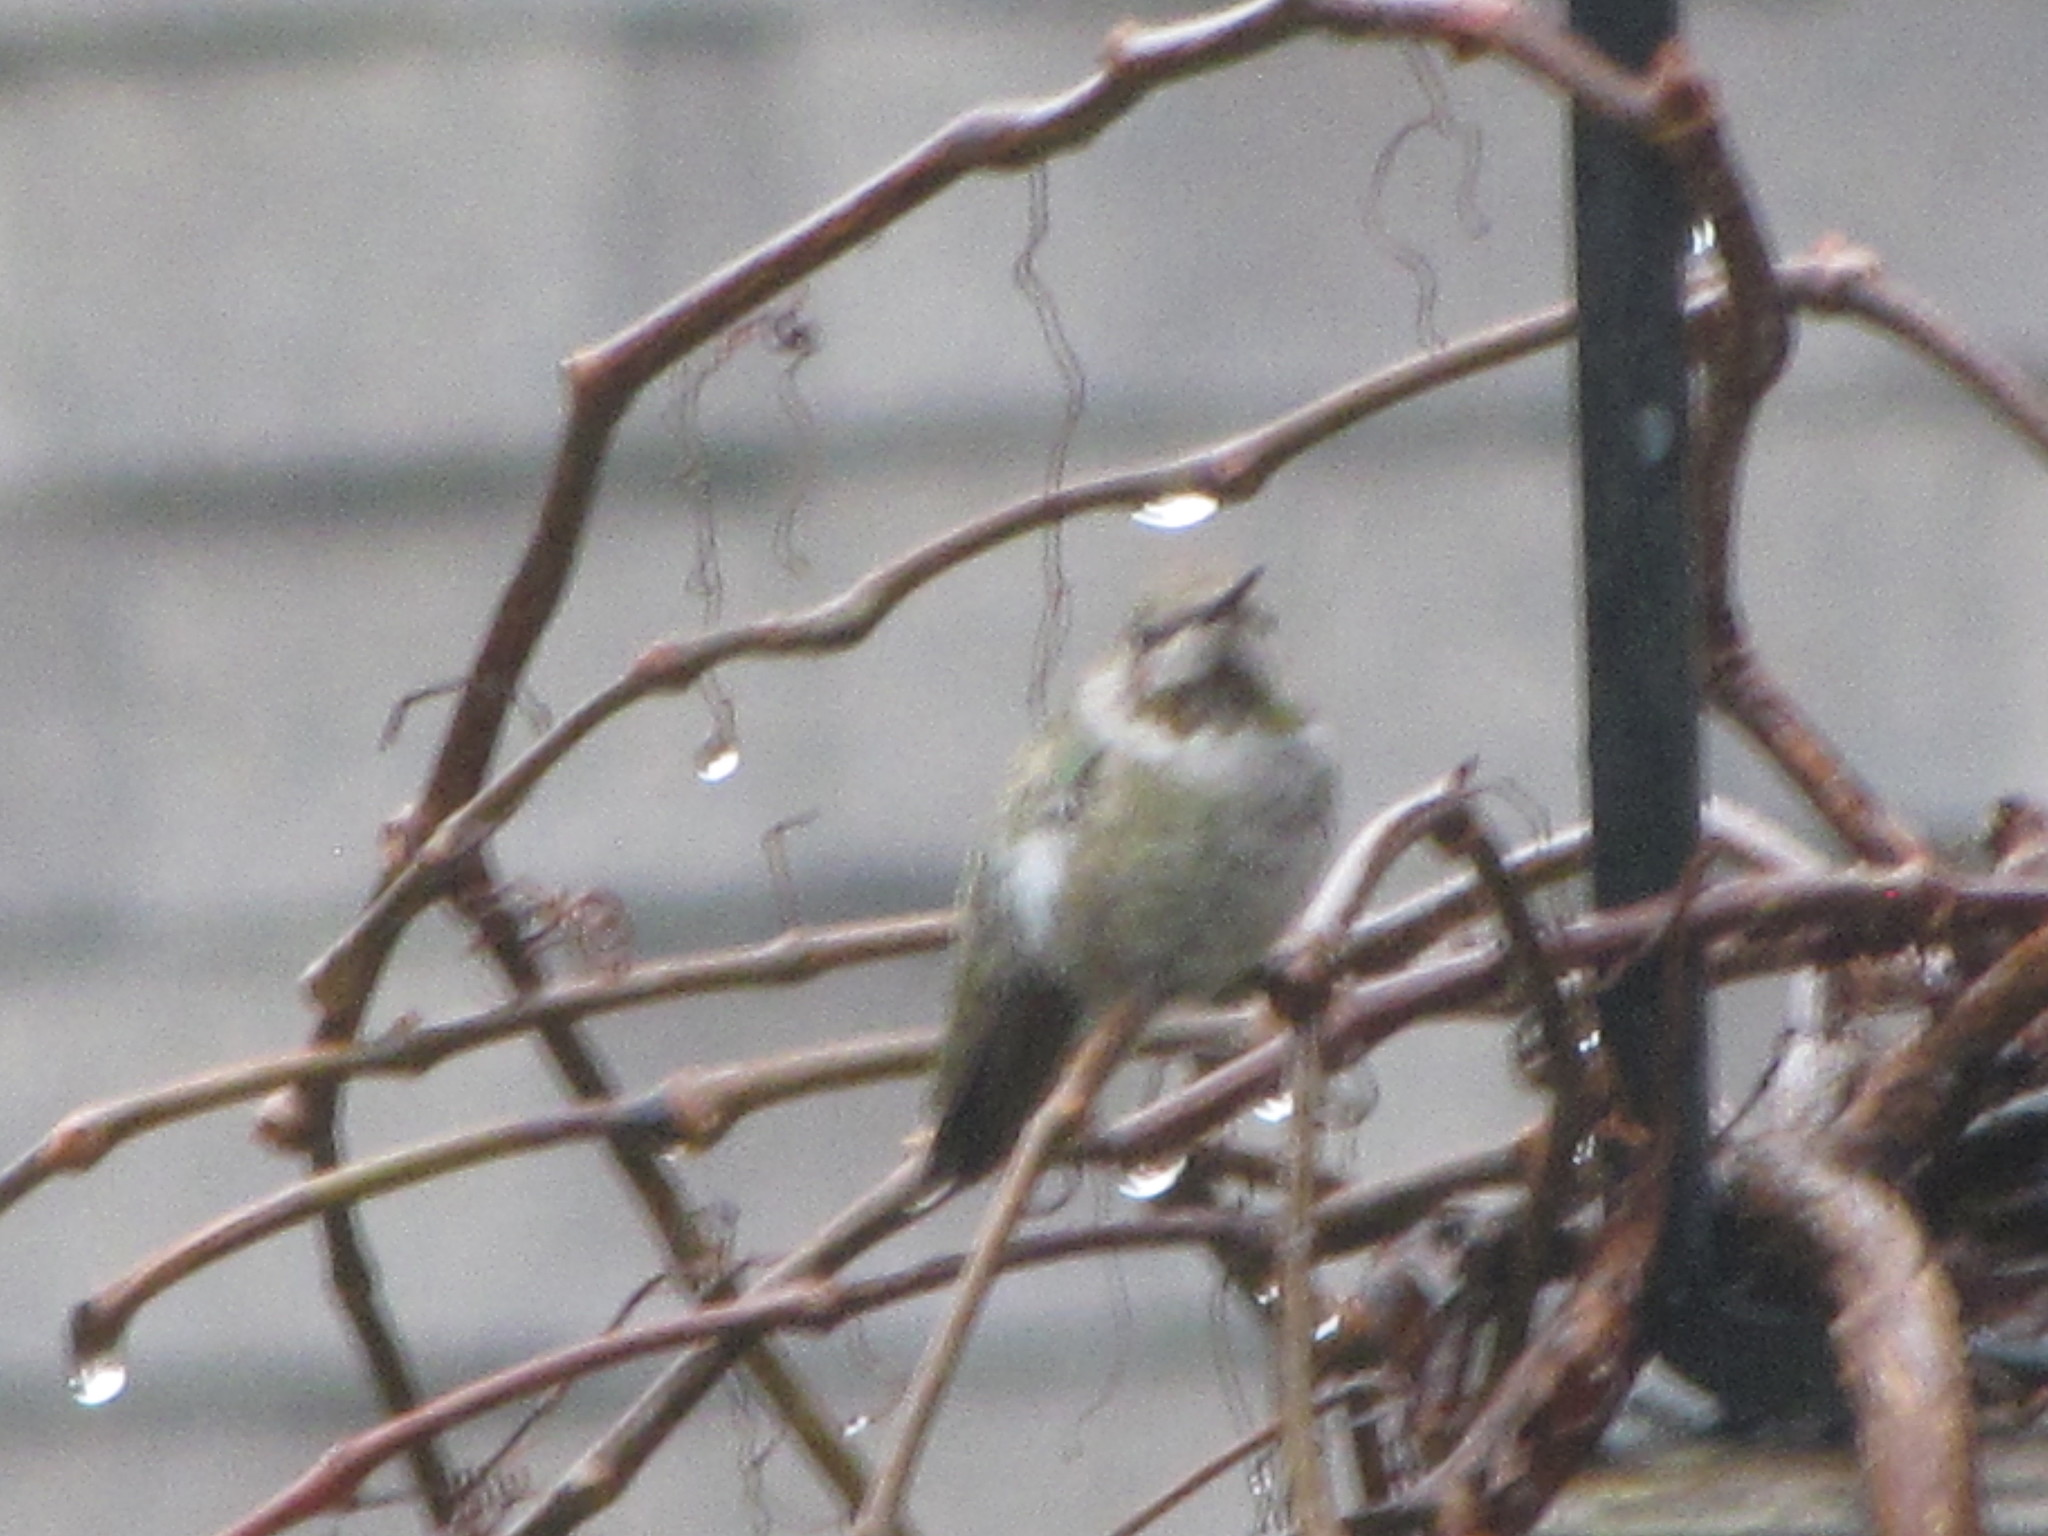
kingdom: Animalia
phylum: Chordata
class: Aves
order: Apodiformes
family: Trochilidae
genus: Calypte
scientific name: Calypte anna
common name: Anna's hummingbird
